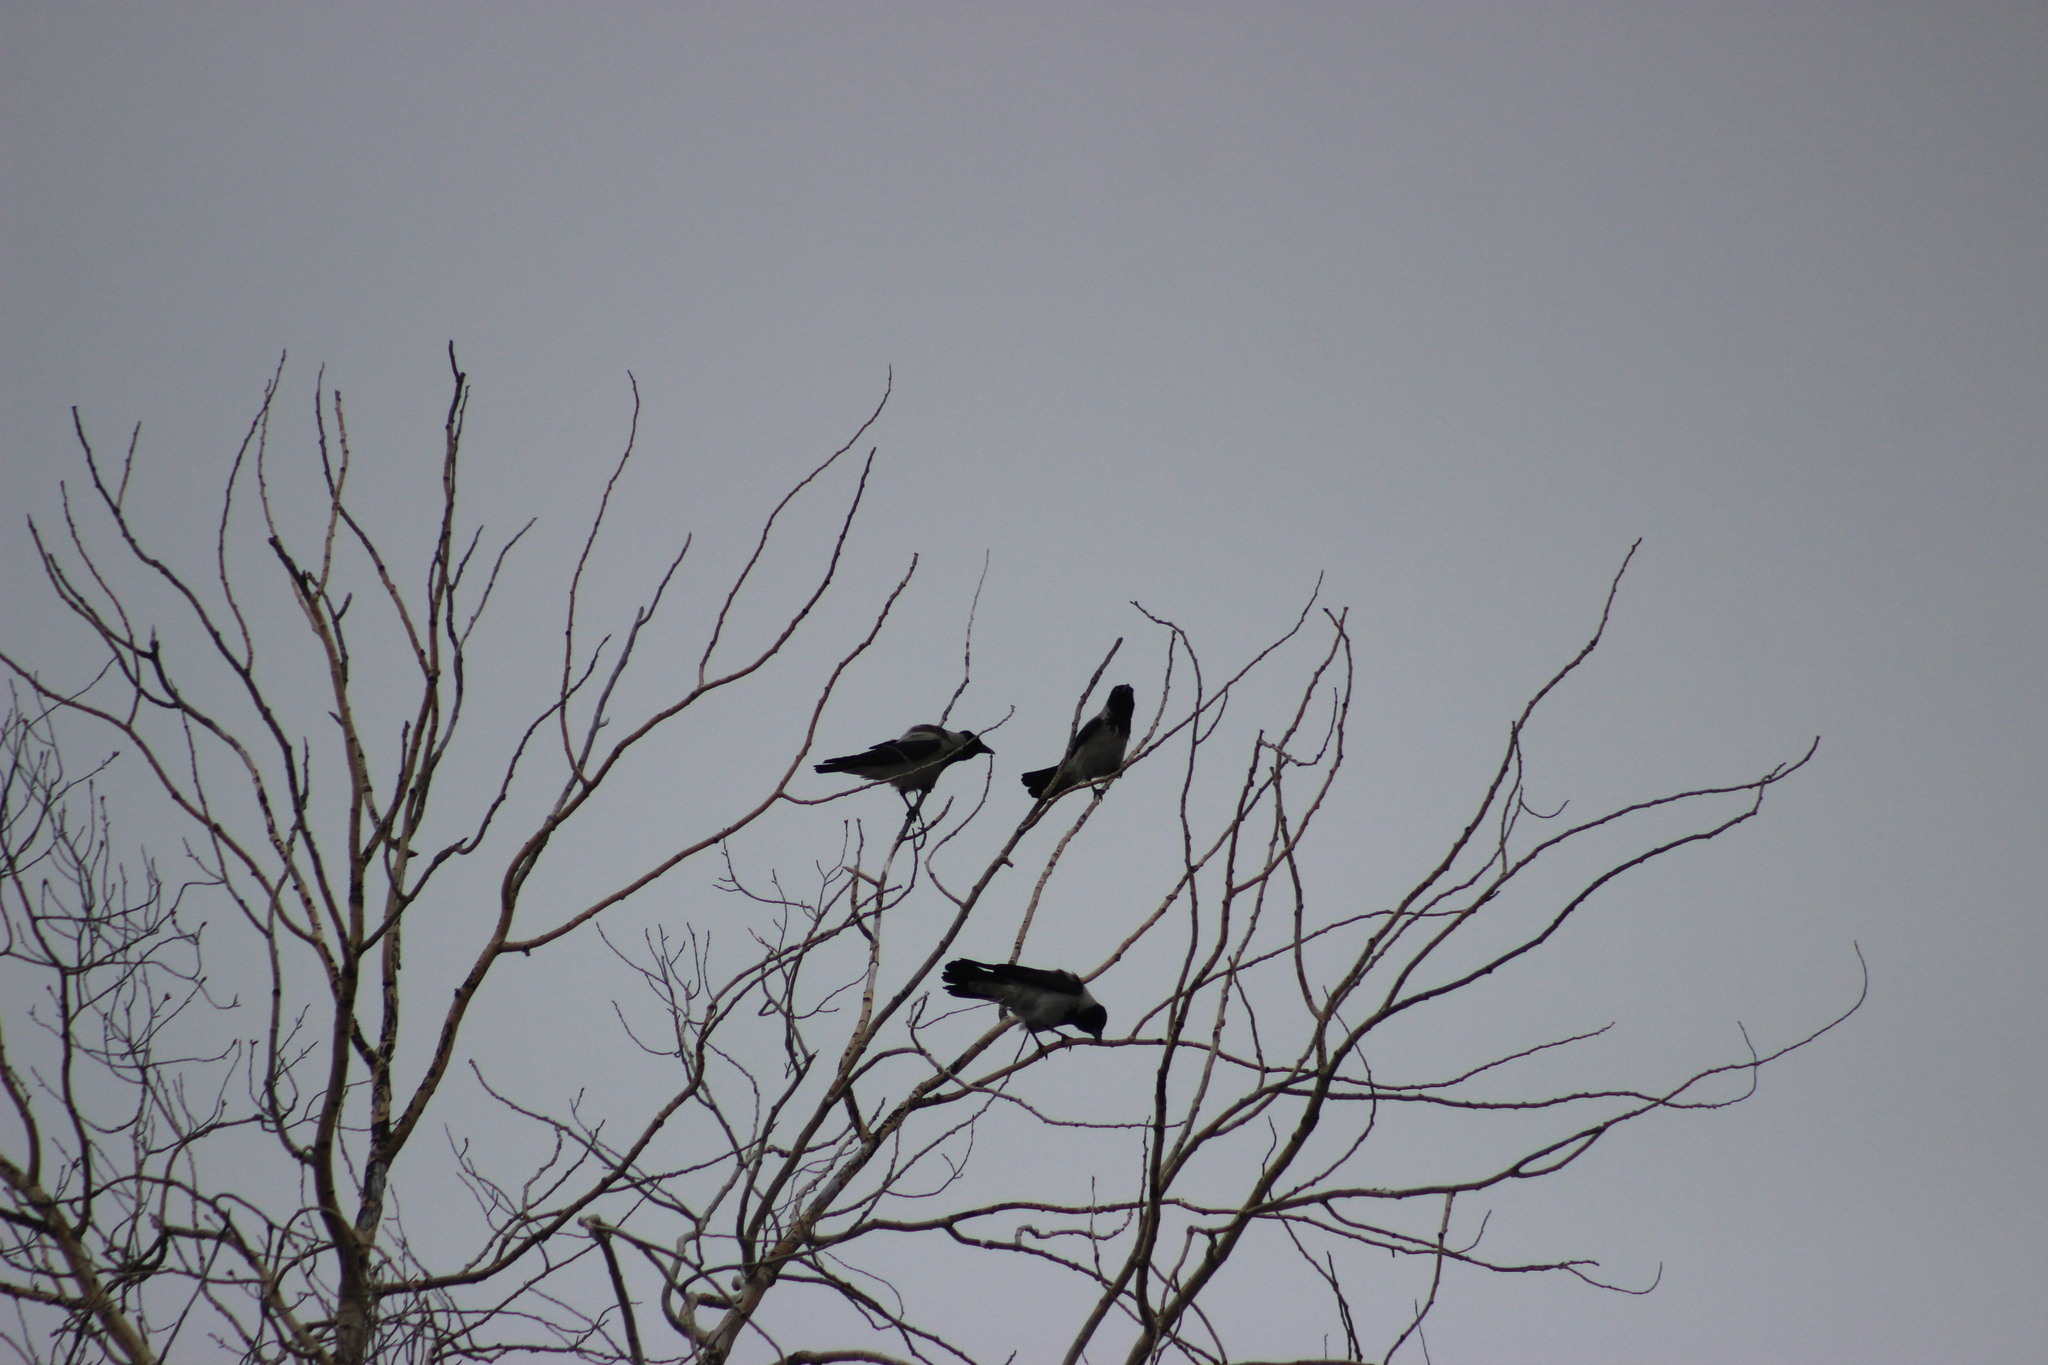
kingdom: Animalia
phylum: Chordata
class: Aves
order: Passeriformes
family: Corvidae
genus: Corvus
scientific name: Corvus cornix
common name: Hooded crow
